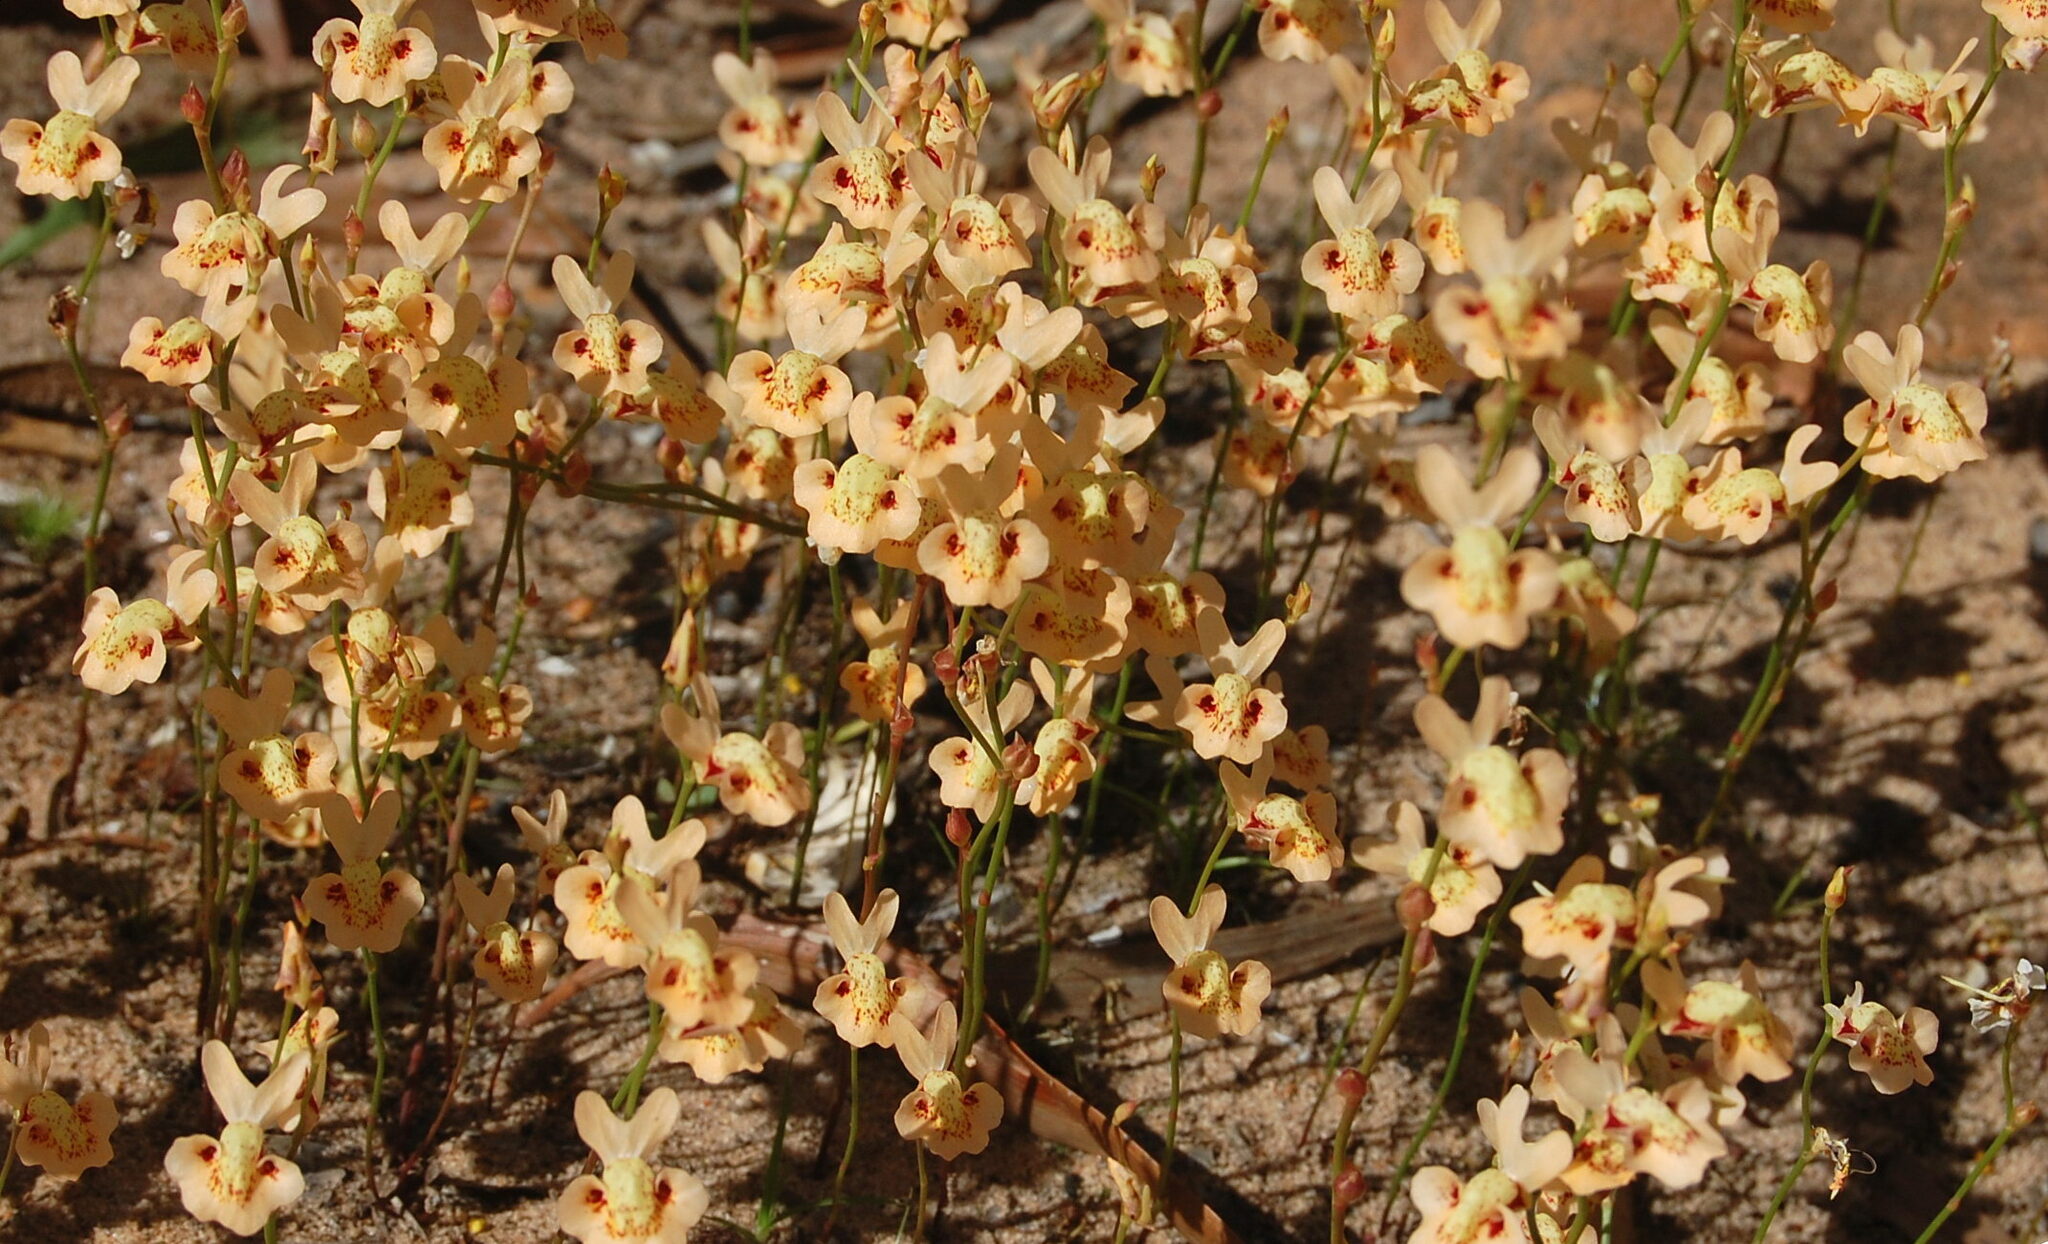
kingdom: Plantae
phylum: Tracheophyta
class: Magnoliopsida
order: Lamiales
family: Lentibulariaceae
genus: Utricularia
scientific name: Utricularia fulva
